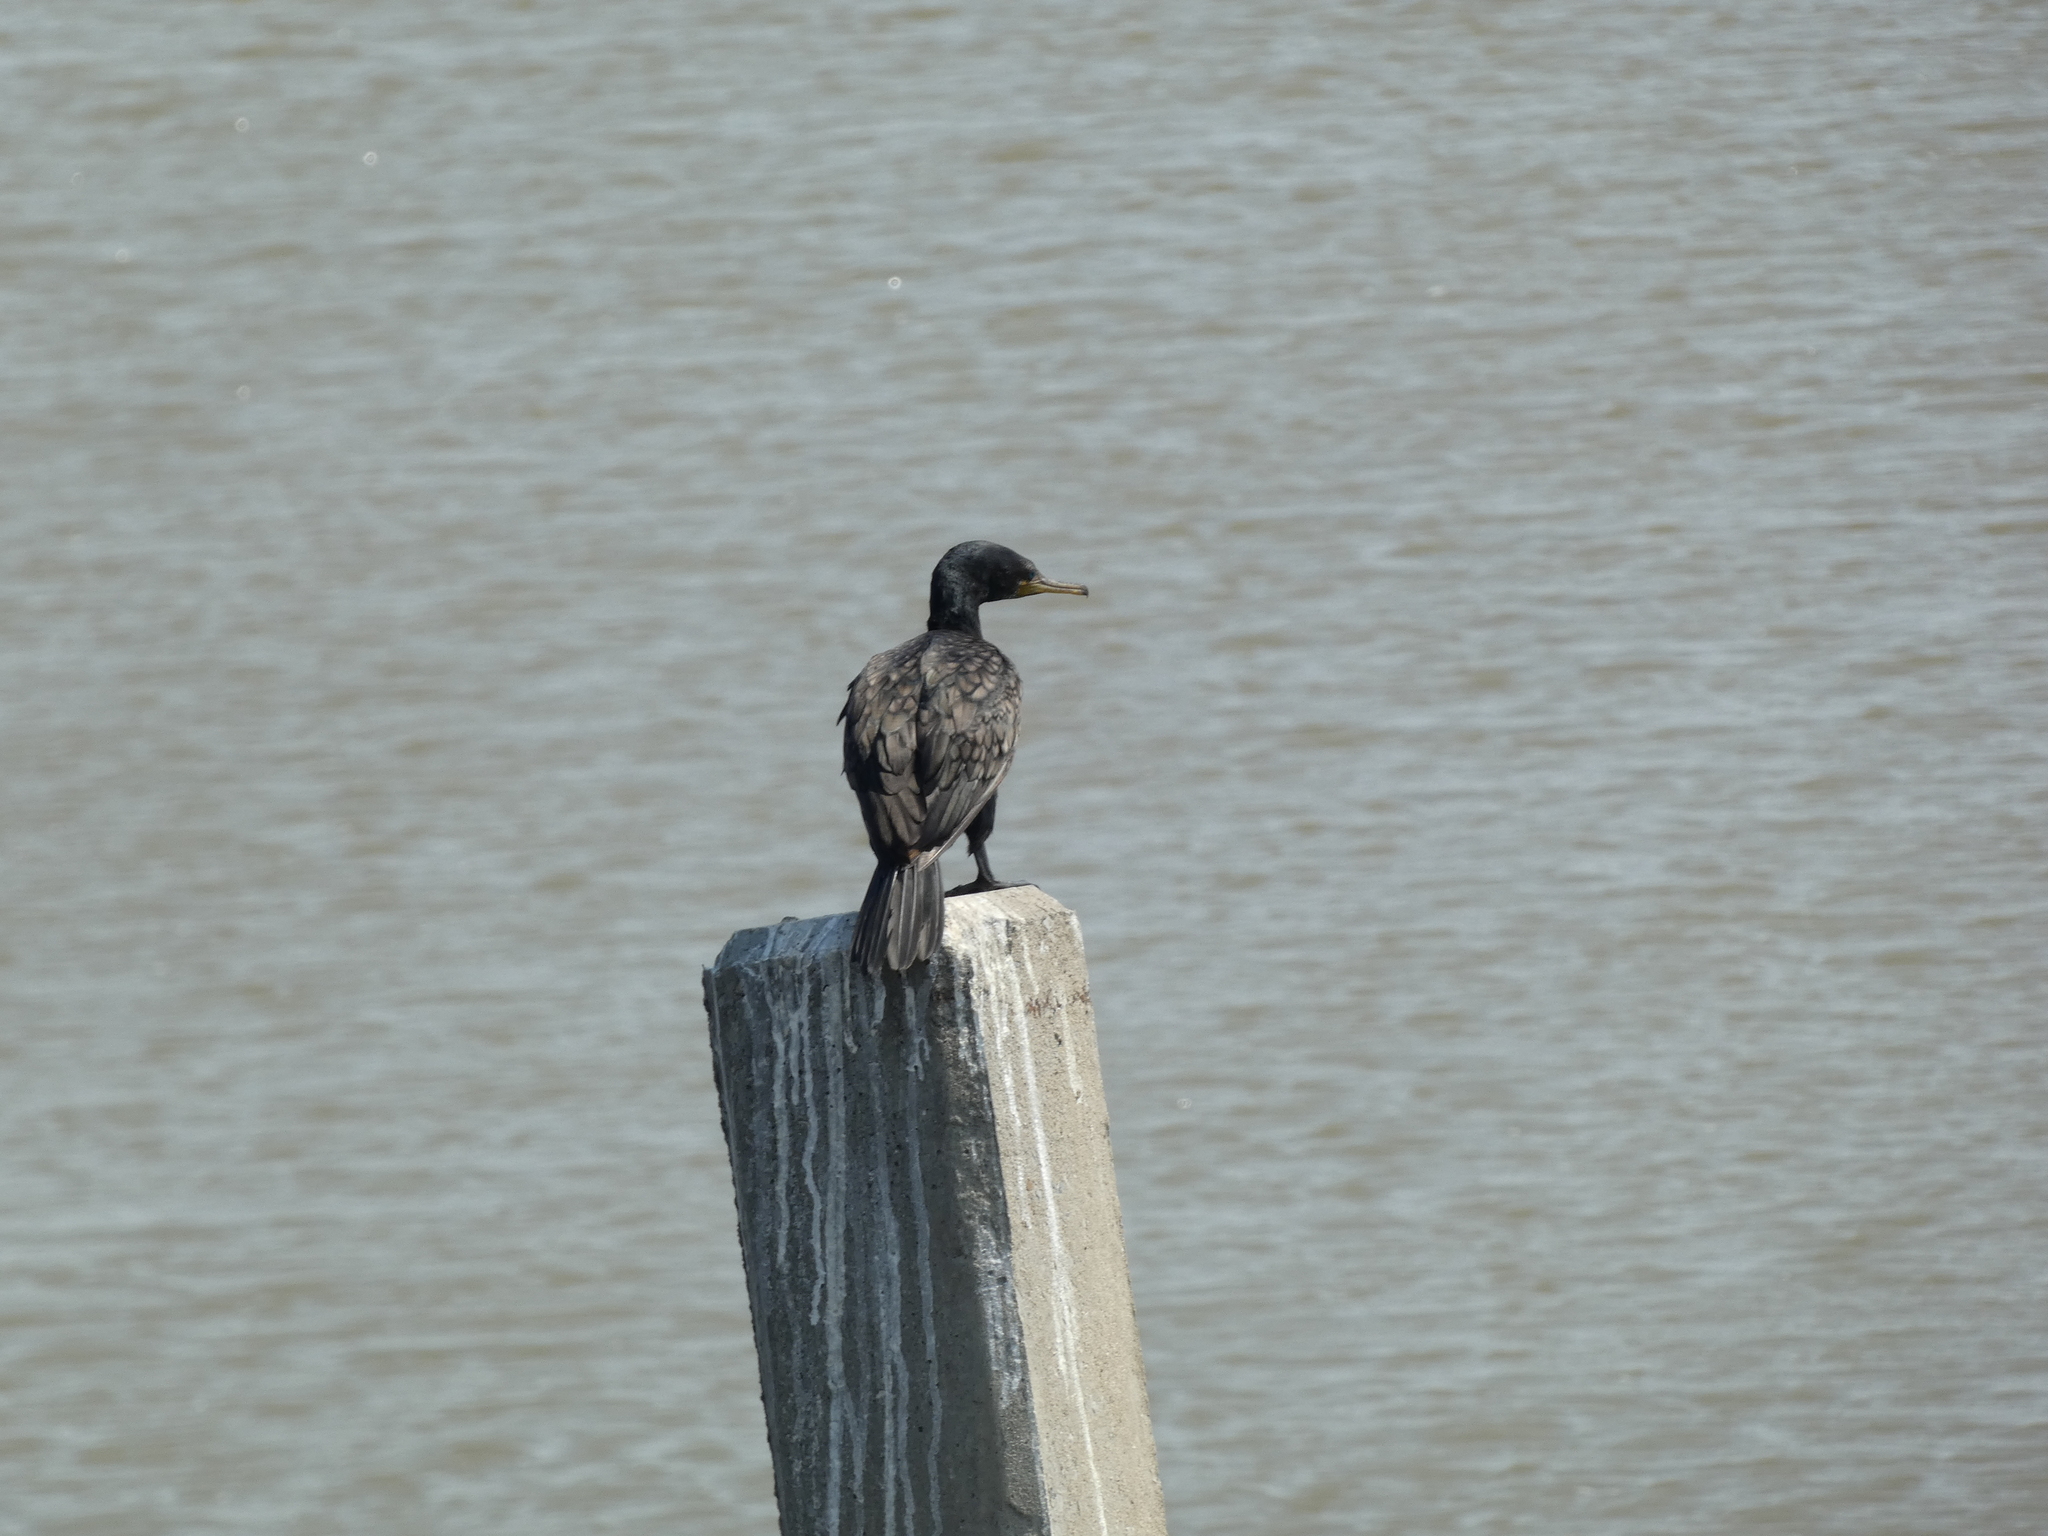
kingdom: Animalia
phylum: Chordata
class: Aves
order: Suliformes
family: Phalacrocoracidae
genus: Phalacrocorax
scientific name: Phalacrocorax fuscicollis
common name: Indian cormorant
